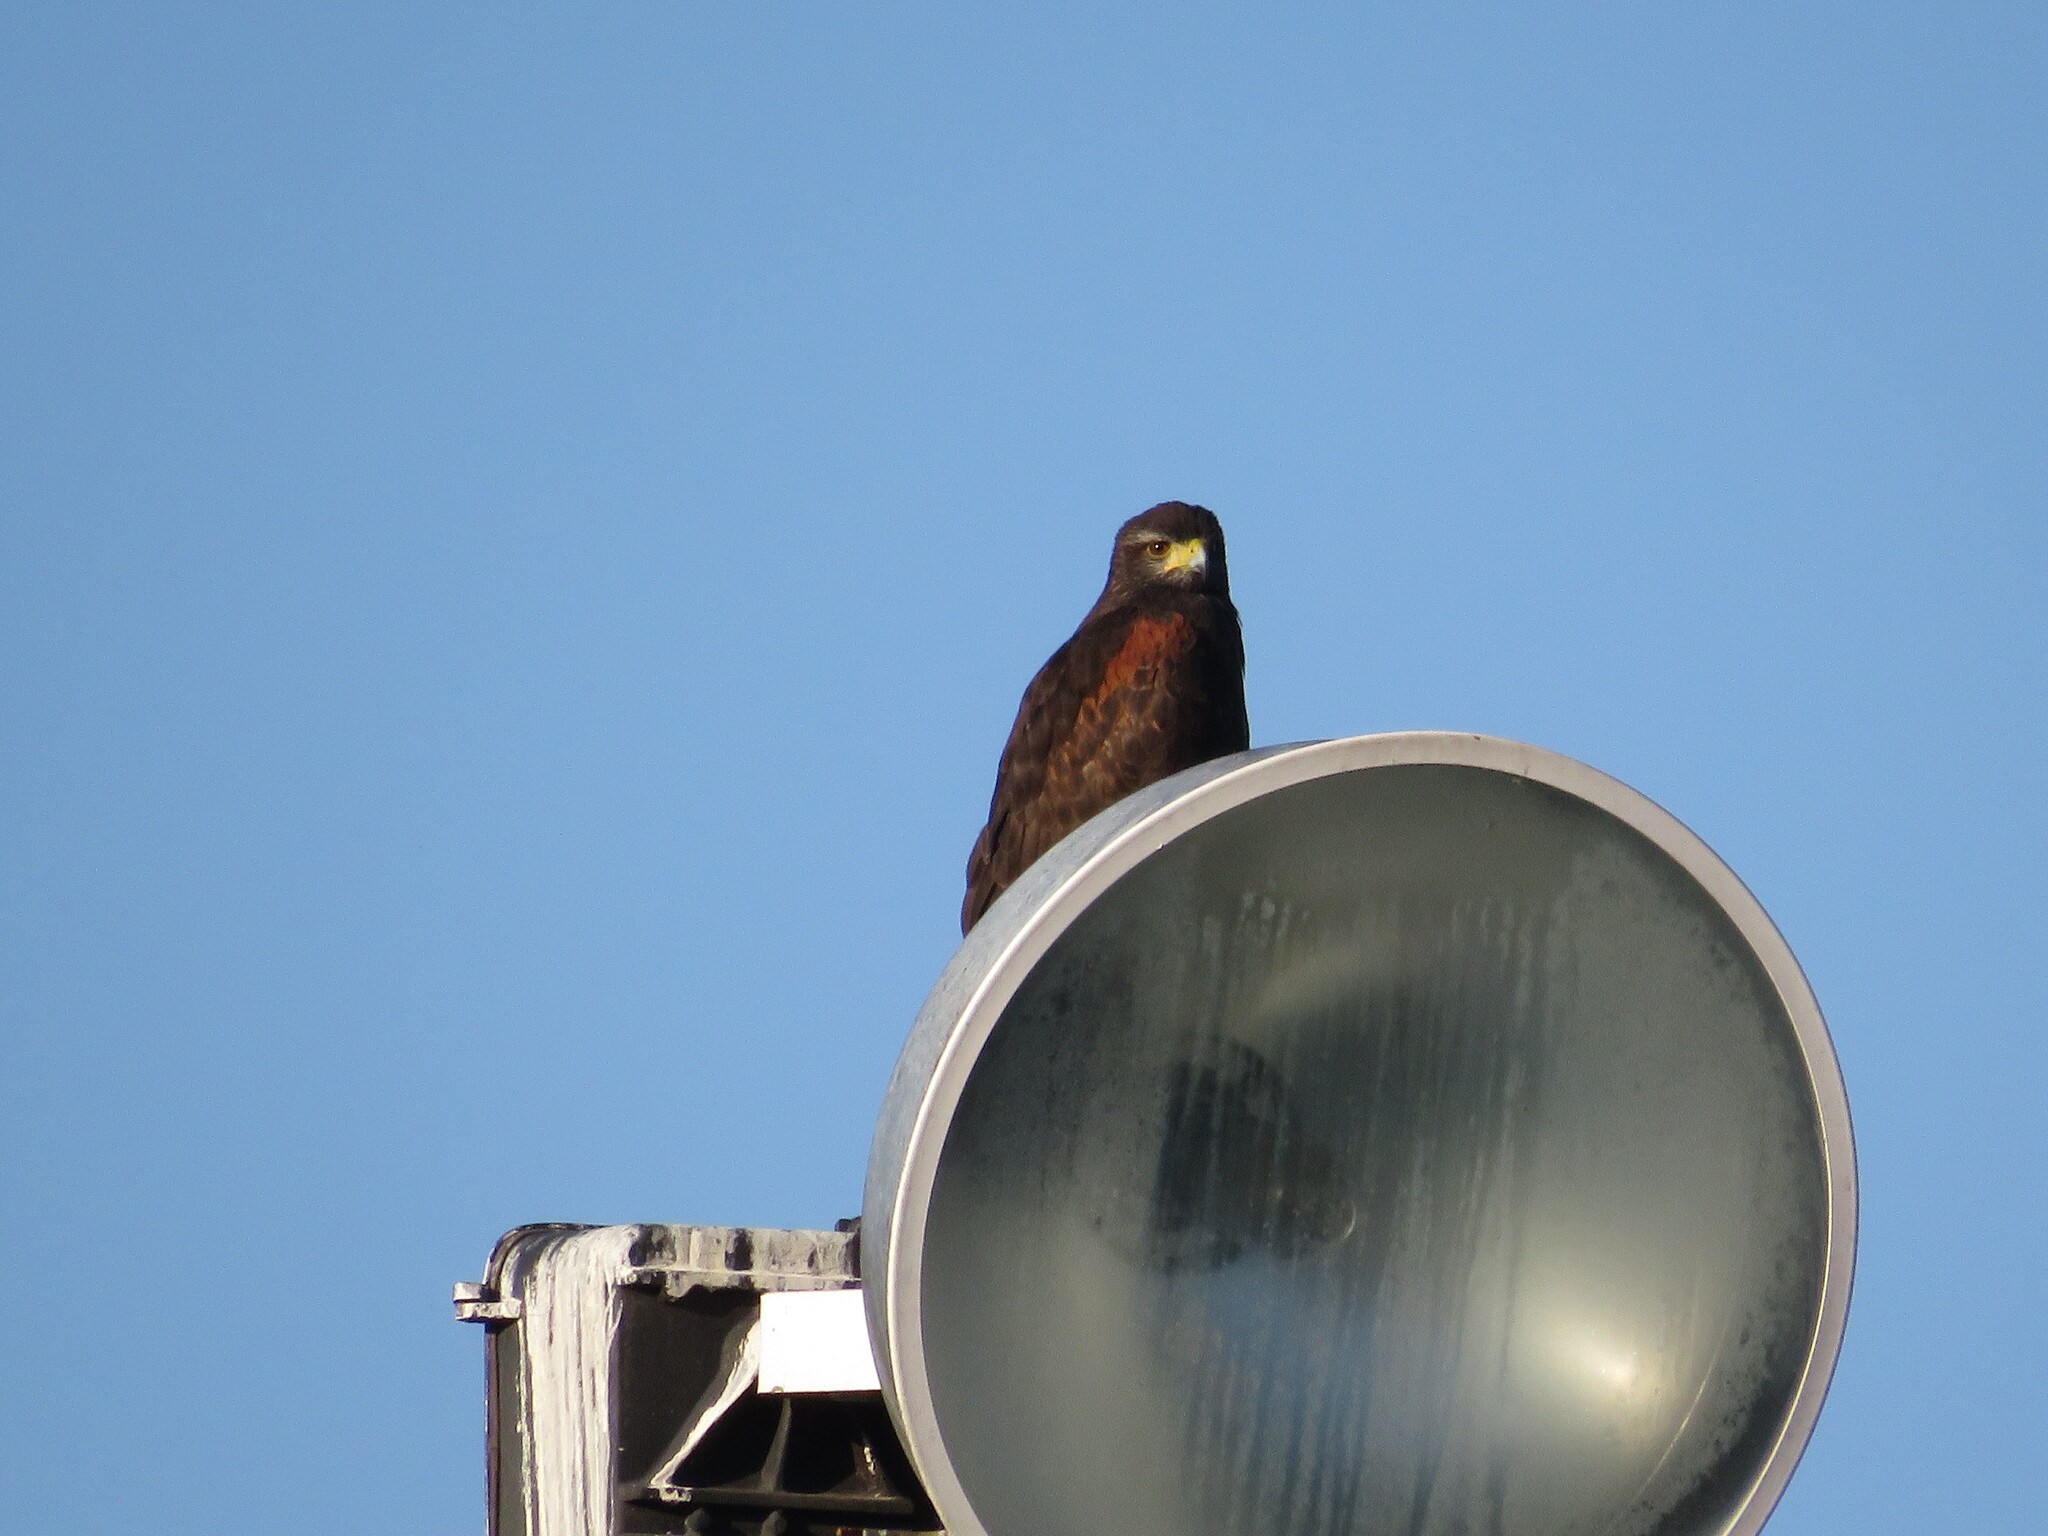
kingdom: Animalia
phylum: Chordata
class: Aves
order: Accipitriformes
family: Accipitridae
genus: Parabuteo
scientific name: Parabuteo unicinctus
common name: Harris's hawk
